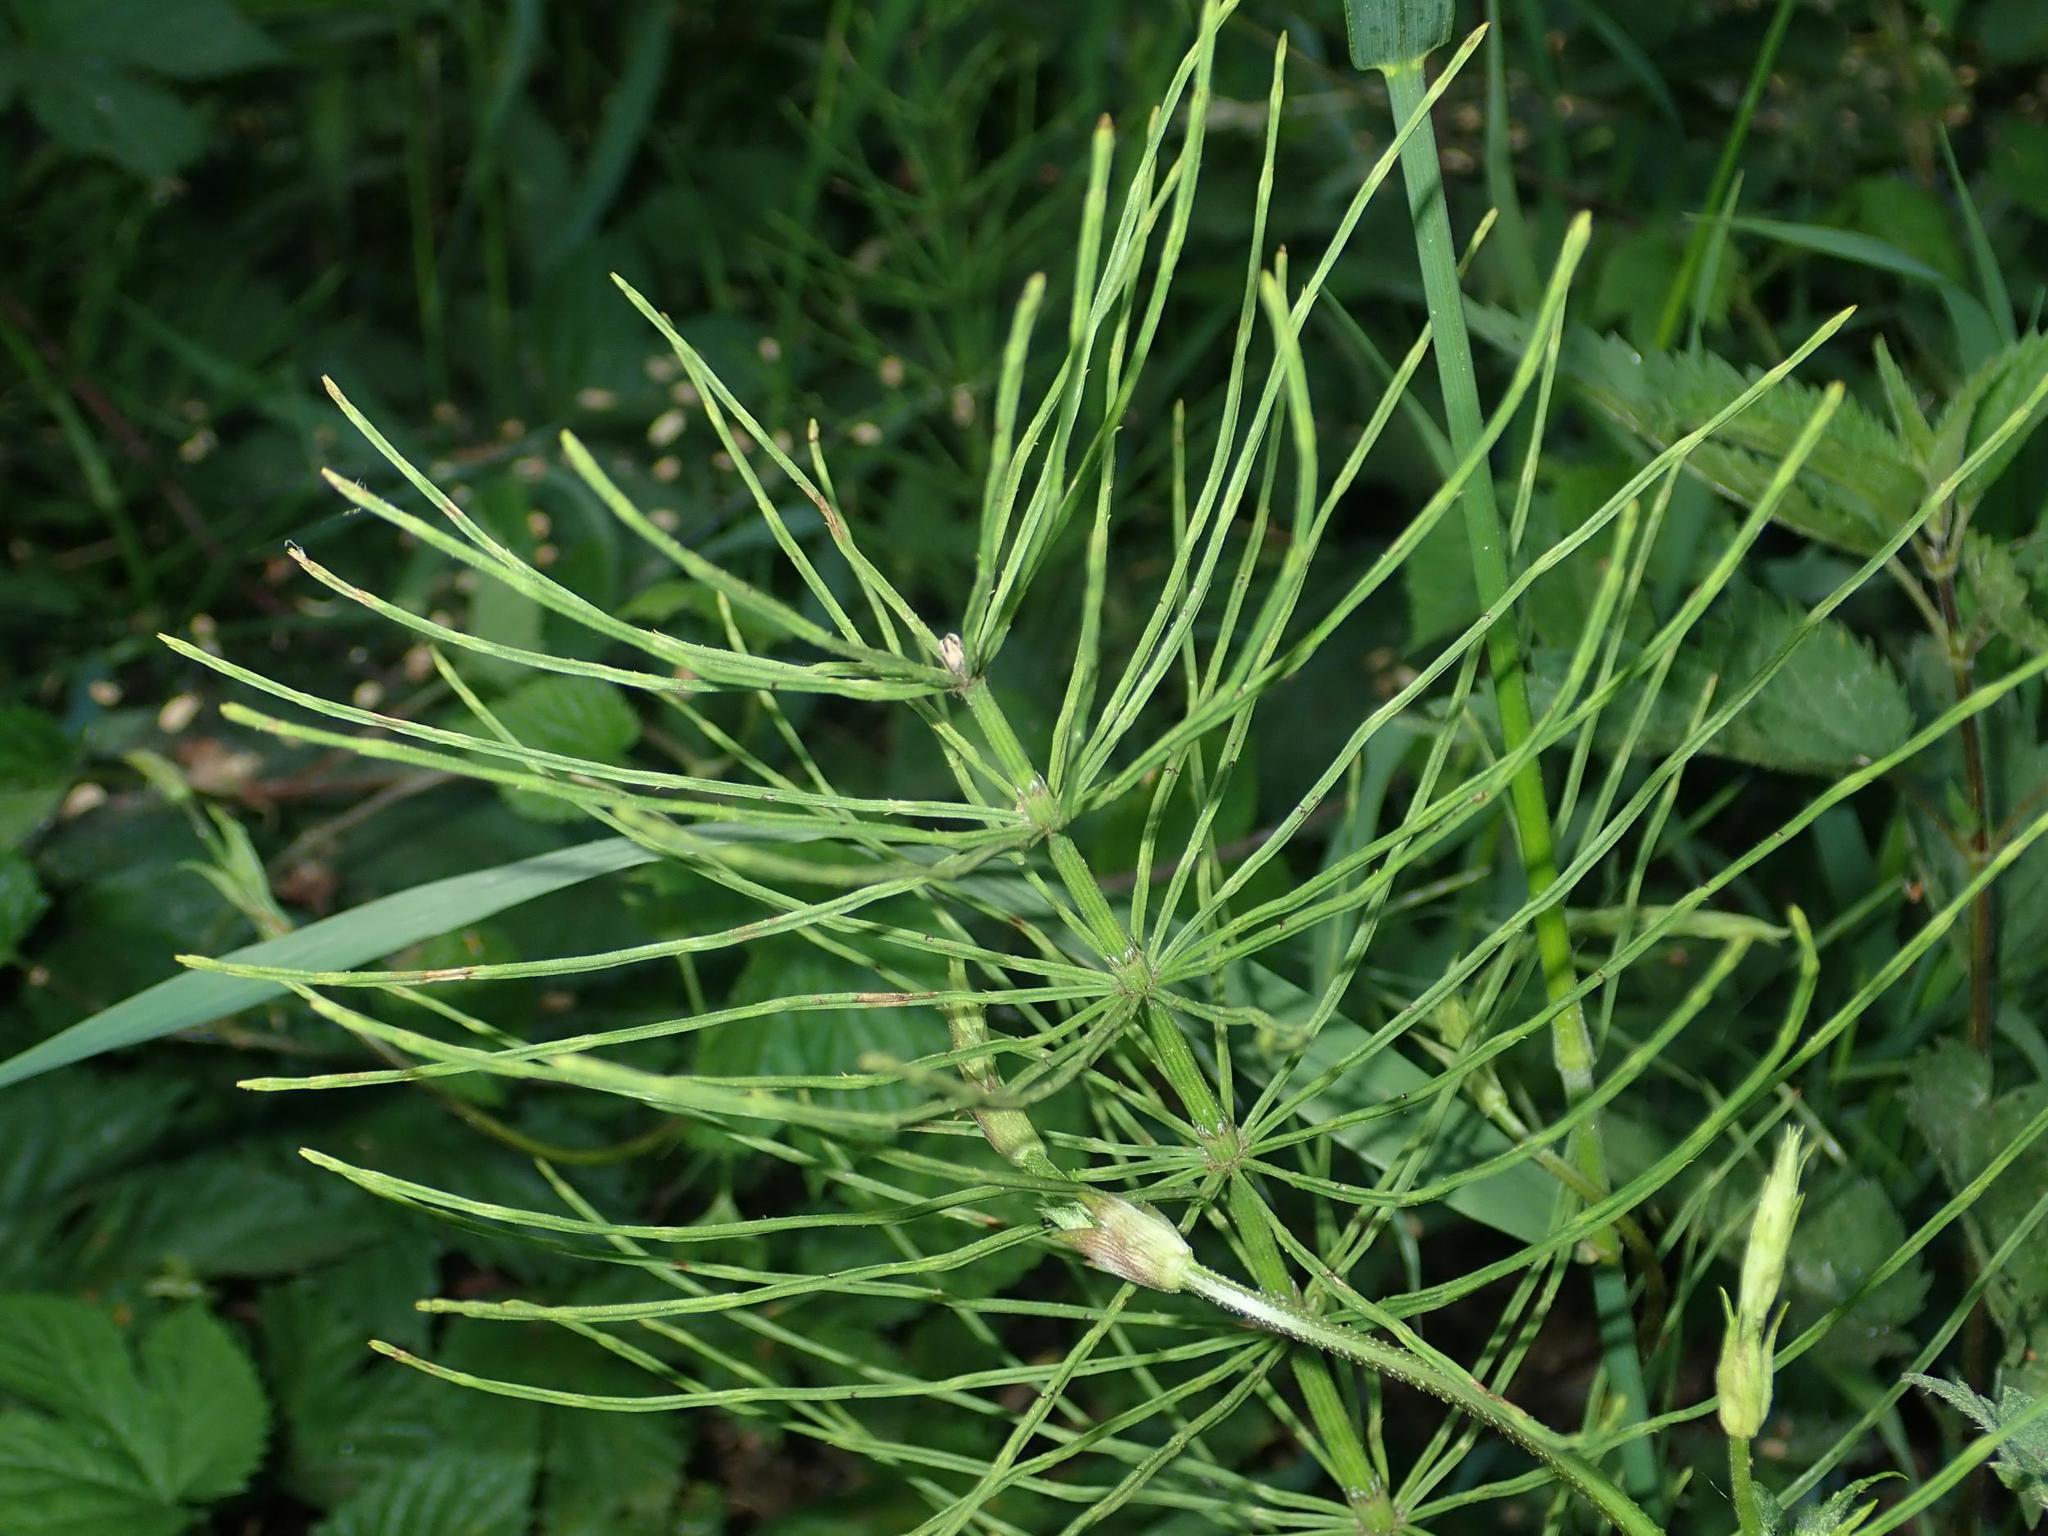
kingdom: Plantae
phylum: Tracheophyta
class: Polypodiopsida
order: Equisetales
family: Equisetaceae
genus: Equisetum
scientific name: Equisetum arvense
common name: Field horsetail
